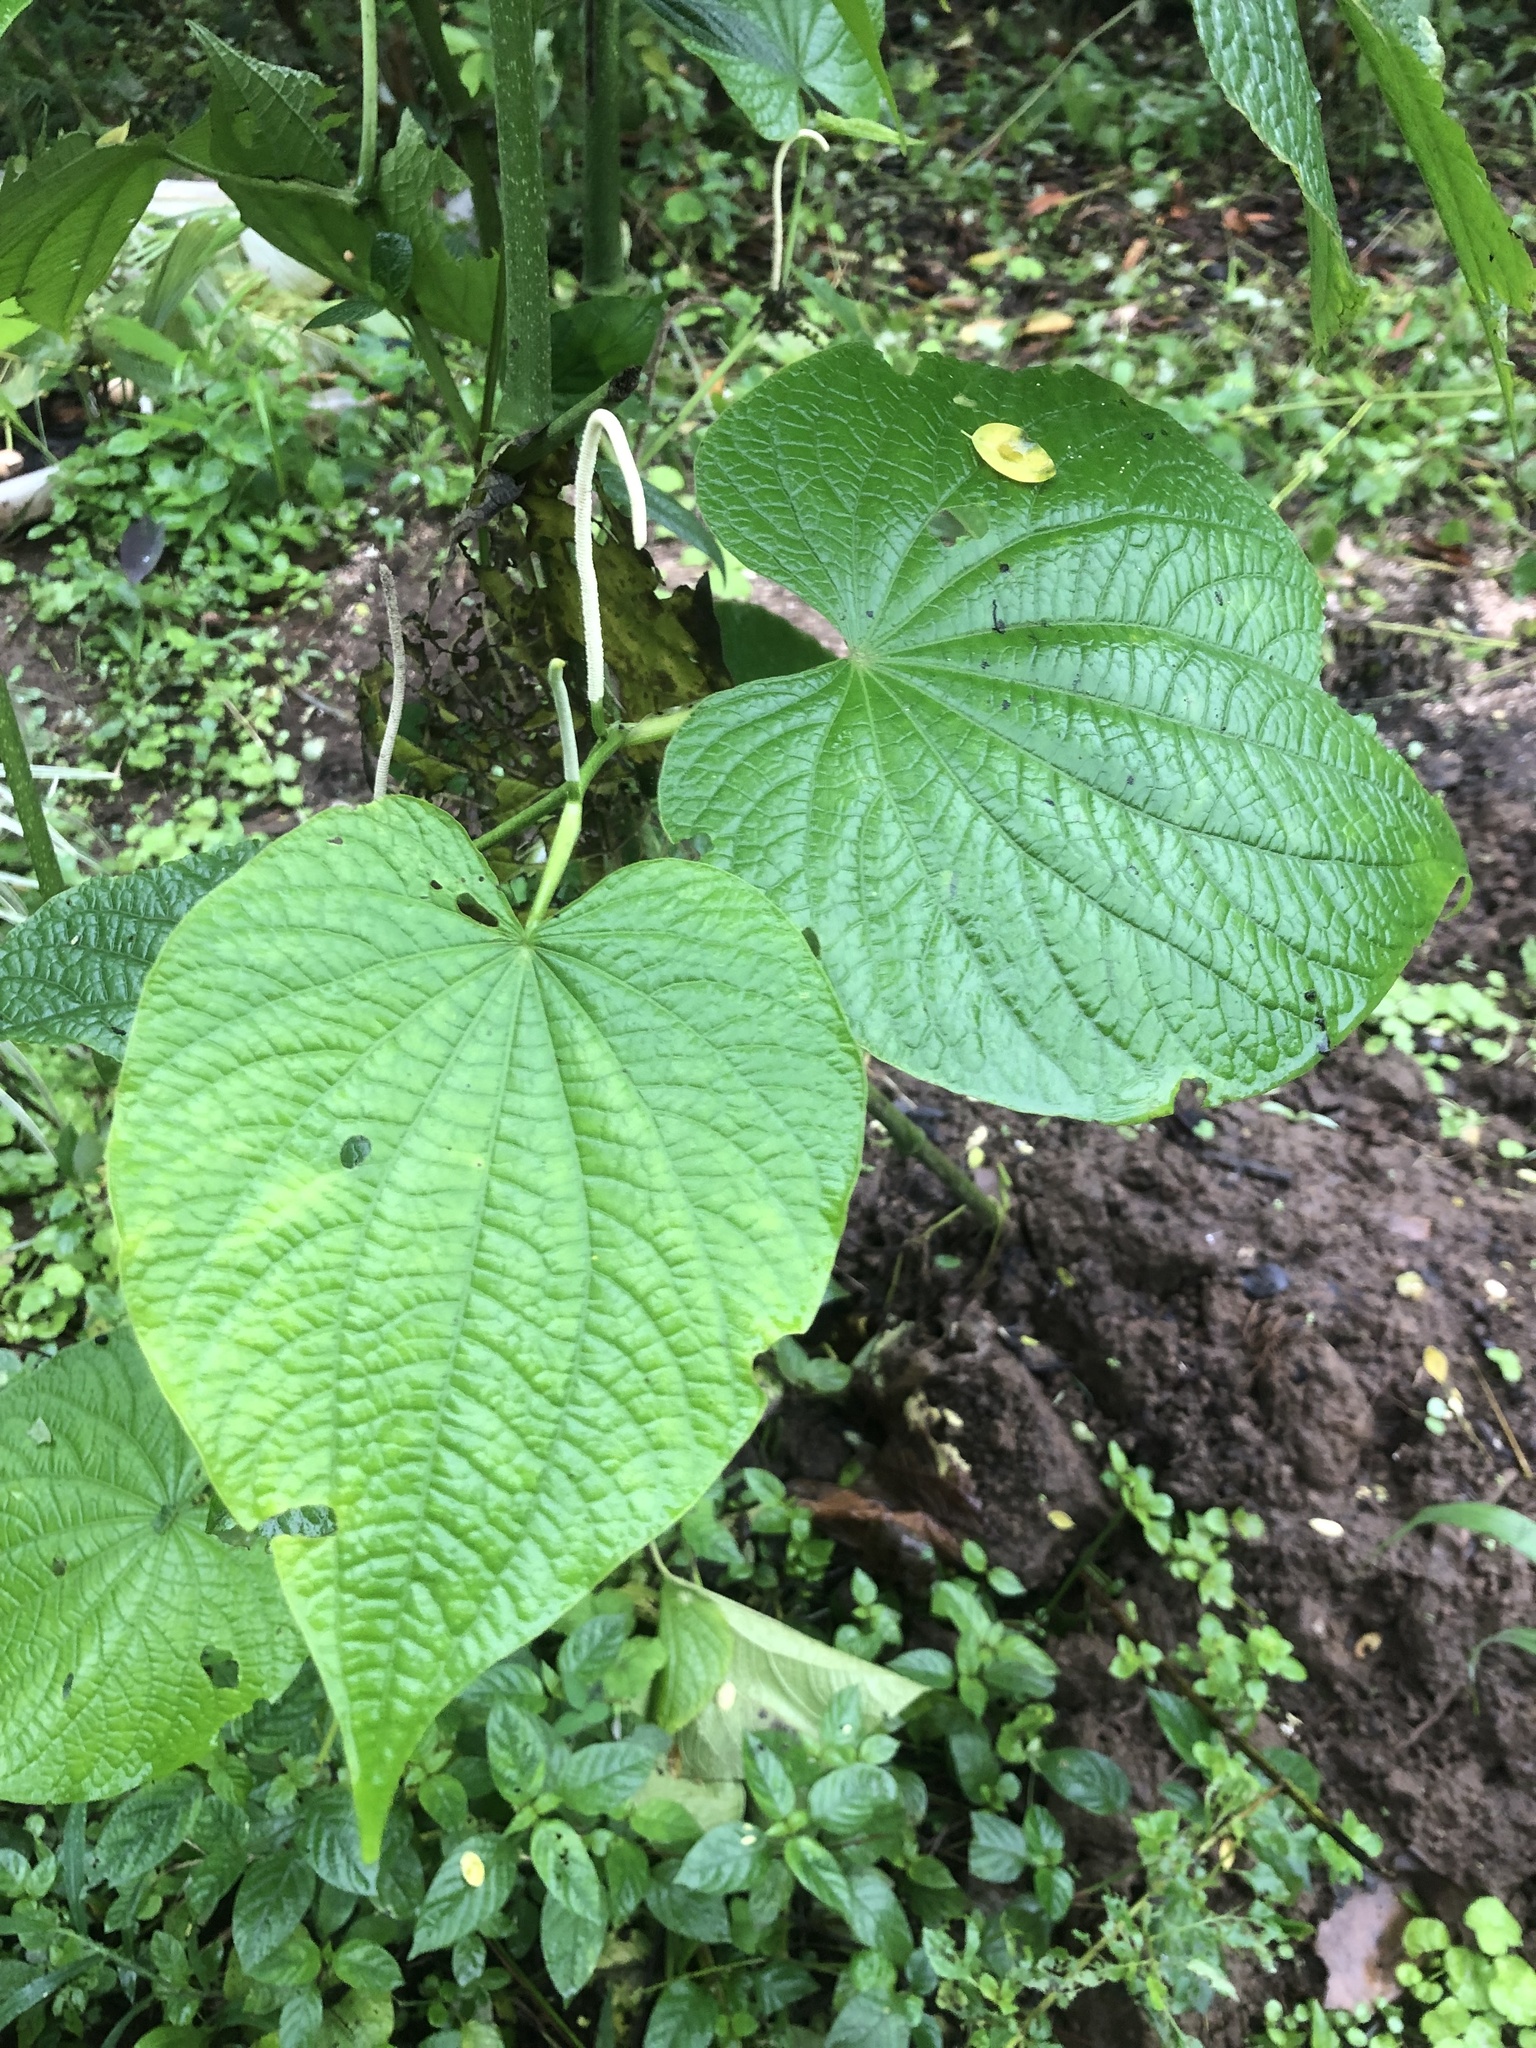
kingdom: Plantae
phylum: Tracheophyta
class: Magnoliopsida
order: Piperales
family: Piperaceae
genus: Piper
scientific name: Piper umbellatum
